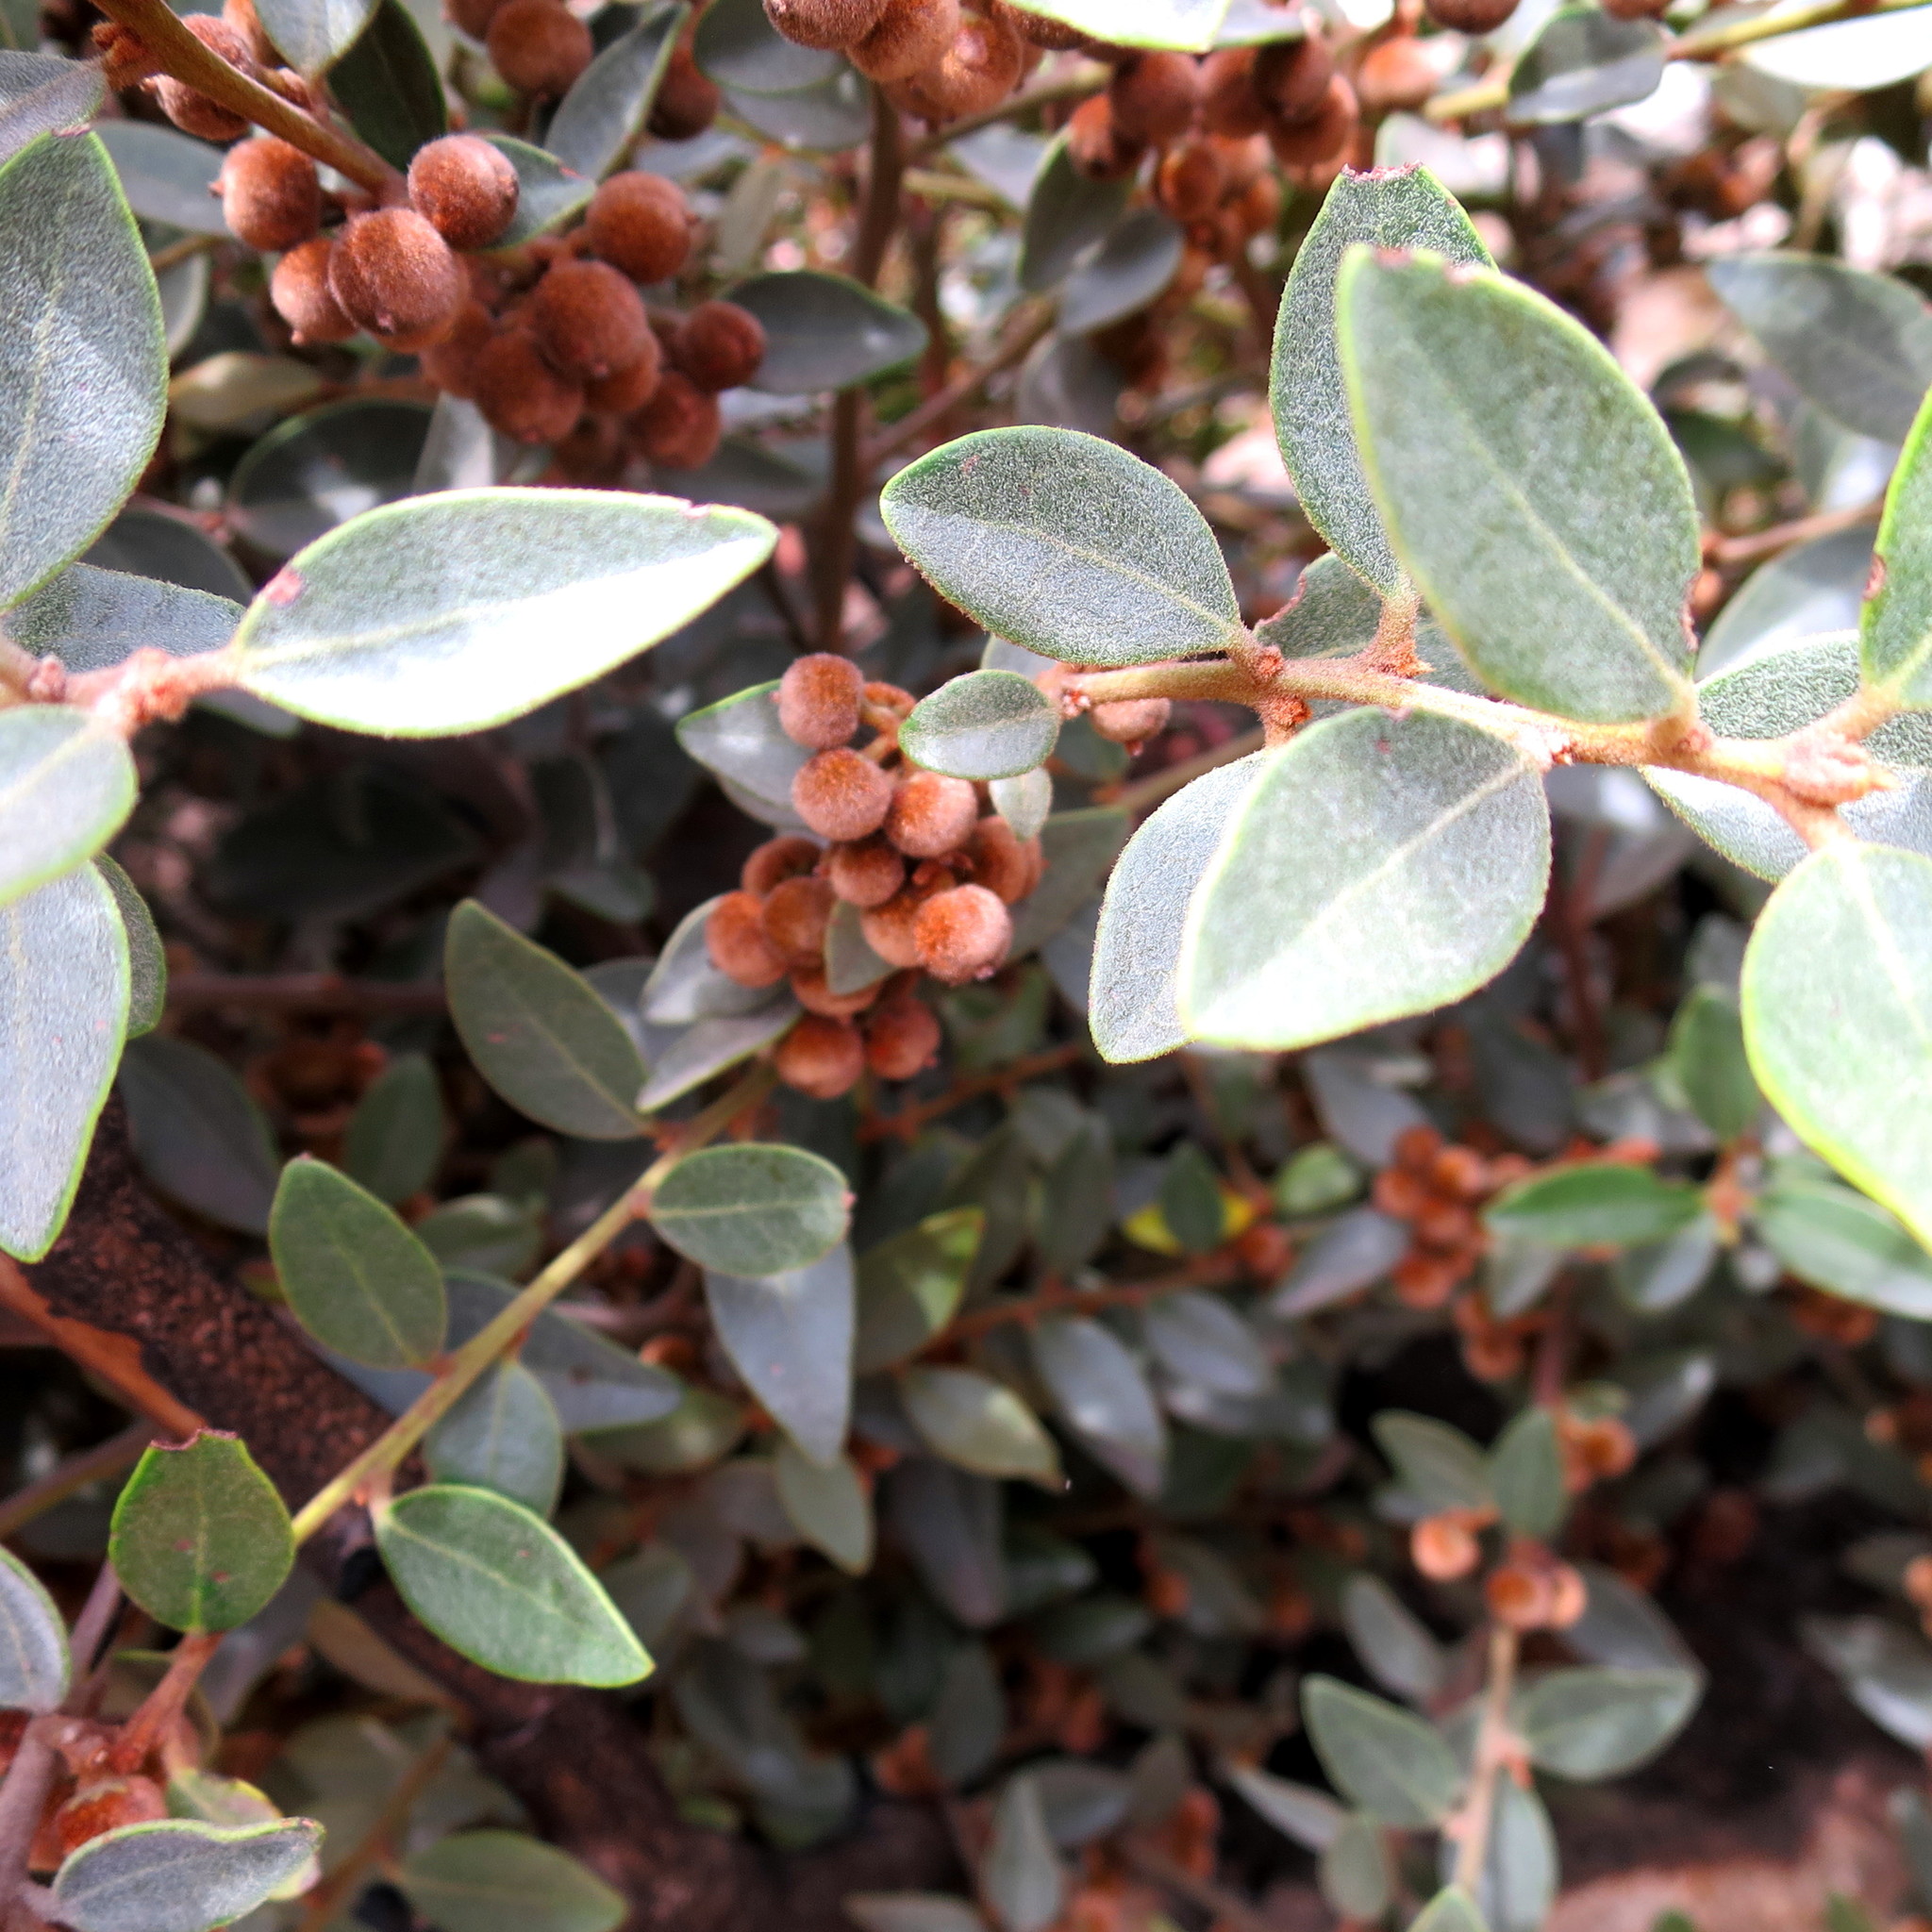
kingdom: Plantae
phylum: Tracheophyta
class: Magnoliopsida
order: Ericales
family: Ebenaceae
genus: Euclea
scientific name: Euclea polyandra
